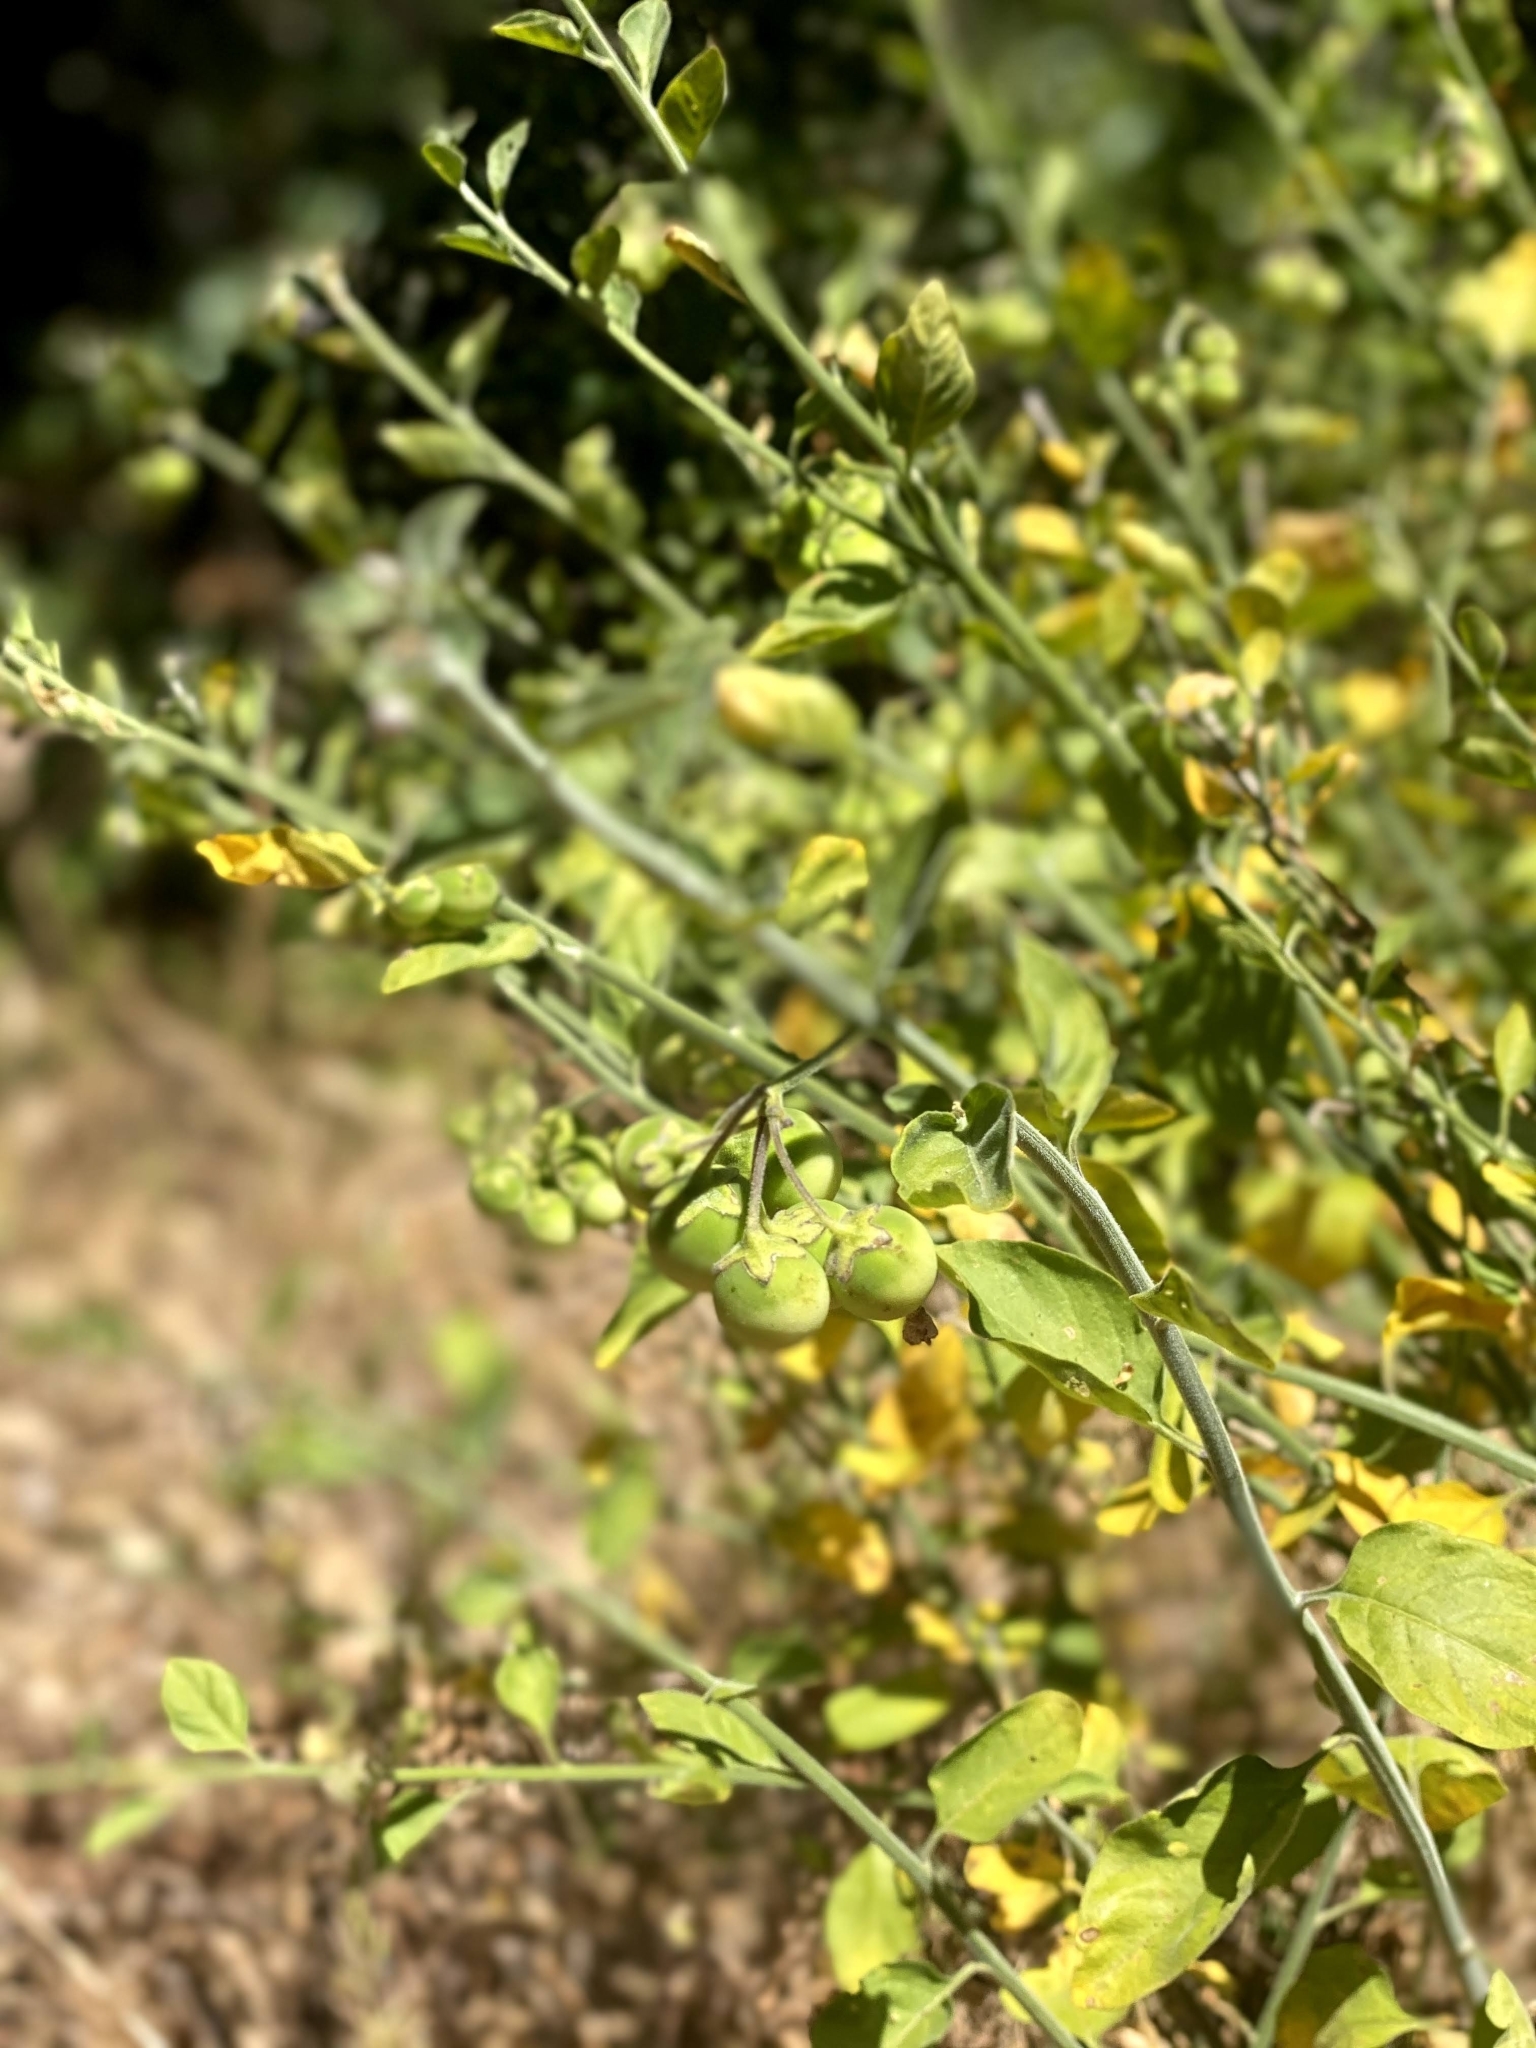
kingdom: Plantae
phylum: Tracheophyta
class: Magnoliopsida
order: Solanales
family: Solanaceae
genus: Solanum
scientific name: Solanum umbelliferum
